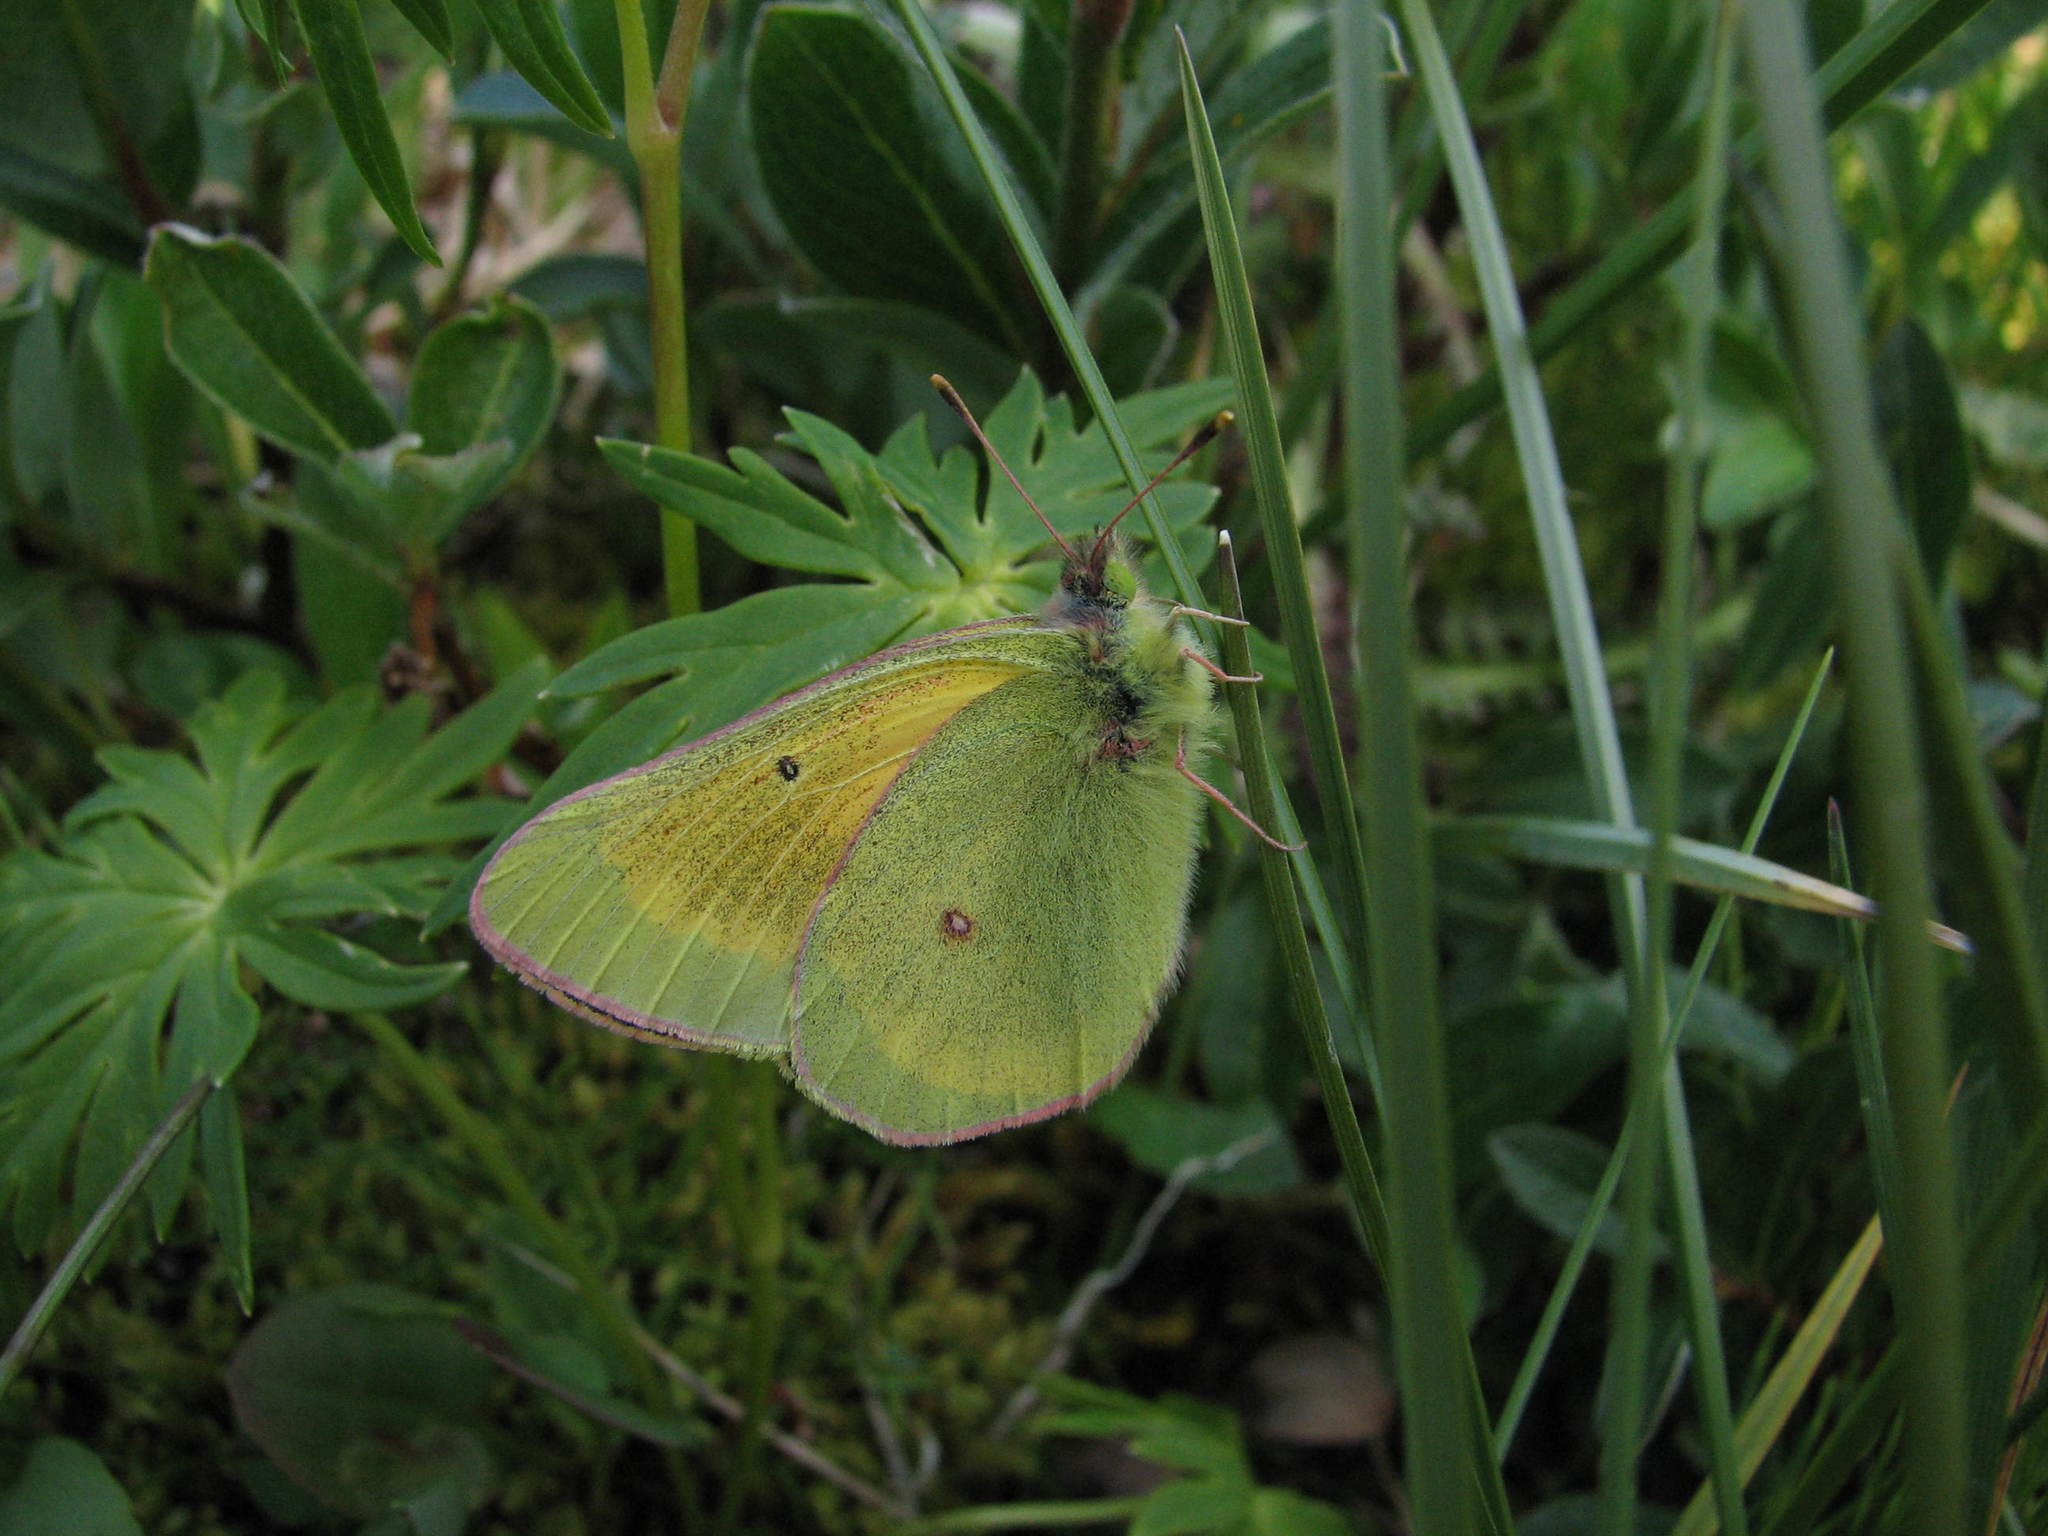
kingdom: Animalia
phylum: Arthropoda
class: Insecta
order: Lepidoptera
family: Pieridae
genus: Colias
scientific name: Colias
